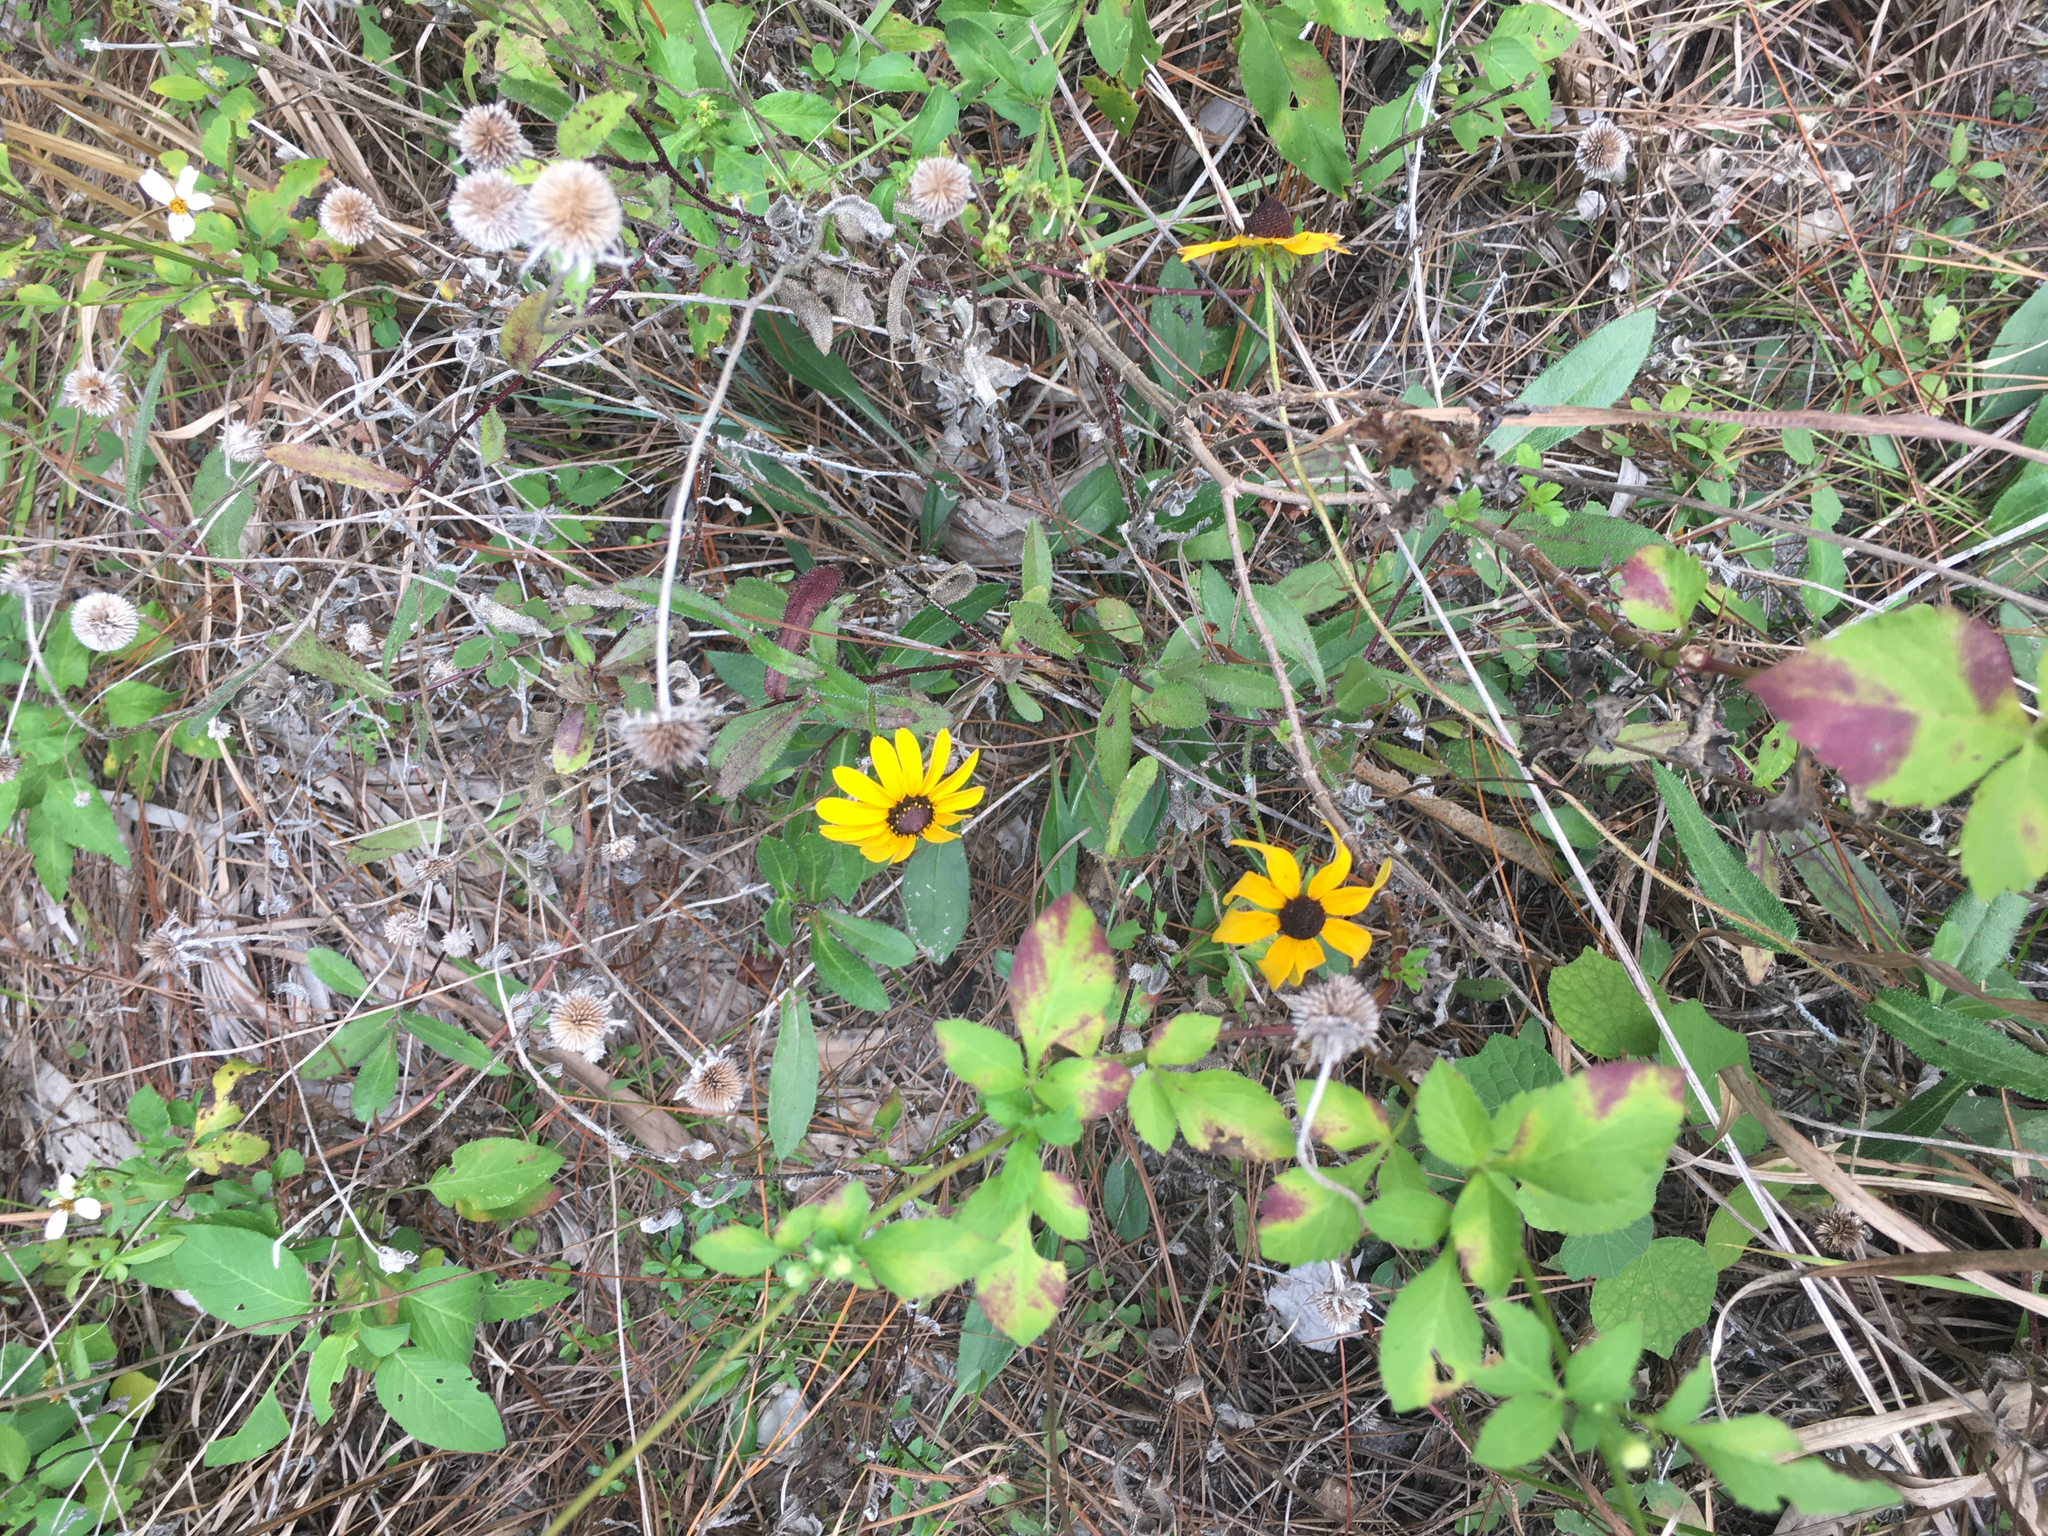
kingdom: Plantae
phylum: Tracheophyta
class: Magnoliopsida
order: Asterales
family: Asteraceae
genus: Helianthus
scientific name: Helianthus debilis
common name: Weak sunflower
